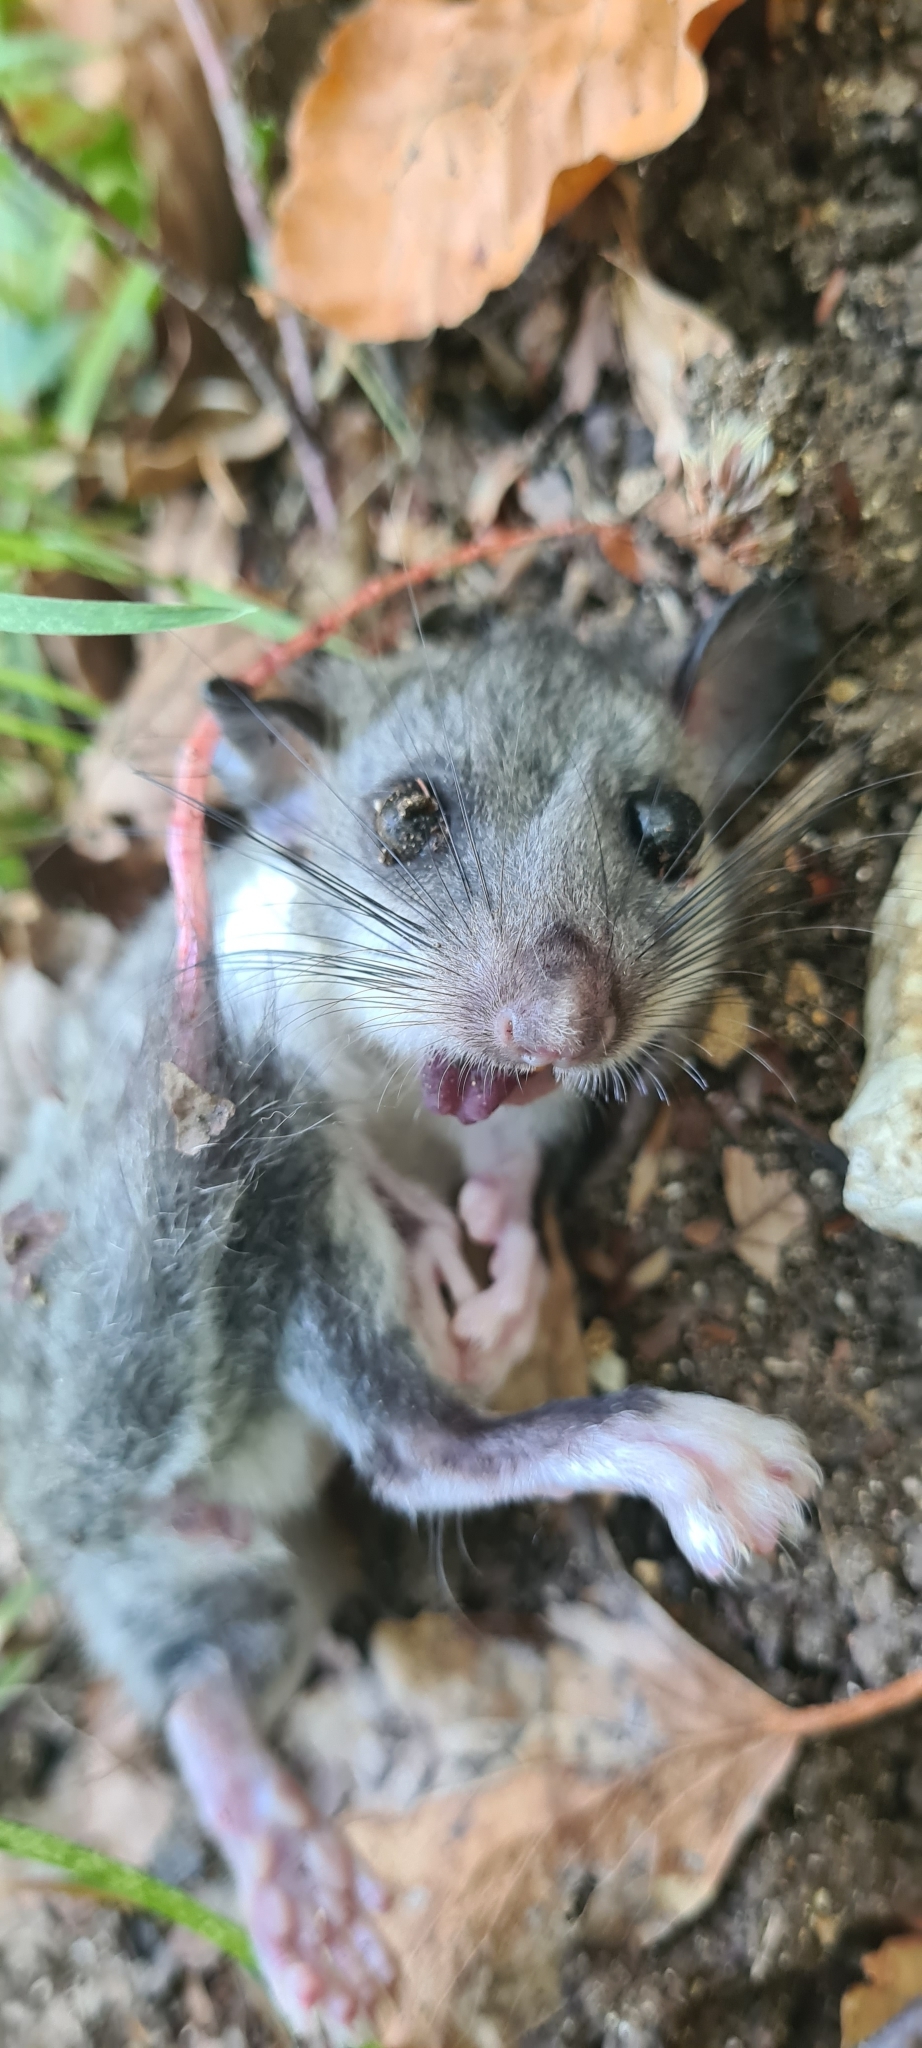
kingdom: Animalia
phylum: Chordata
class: Mammalia
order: Rodentia
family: Gliridae
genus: Glis
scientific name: Glis glis
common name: Fat dormouse
